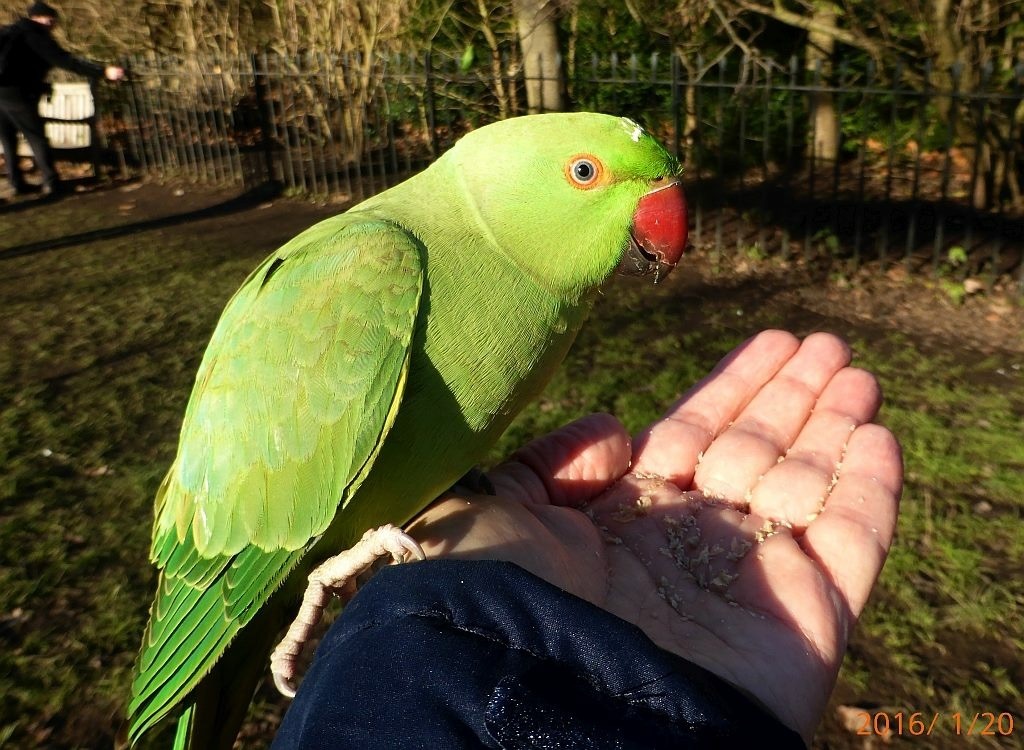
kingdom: Animalia
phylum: Chordata
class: Aves
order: Psittaciformes
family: Psittacidae
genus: Psittacula
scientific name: Psittacula krameri
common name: Rose-ringed parakeet
